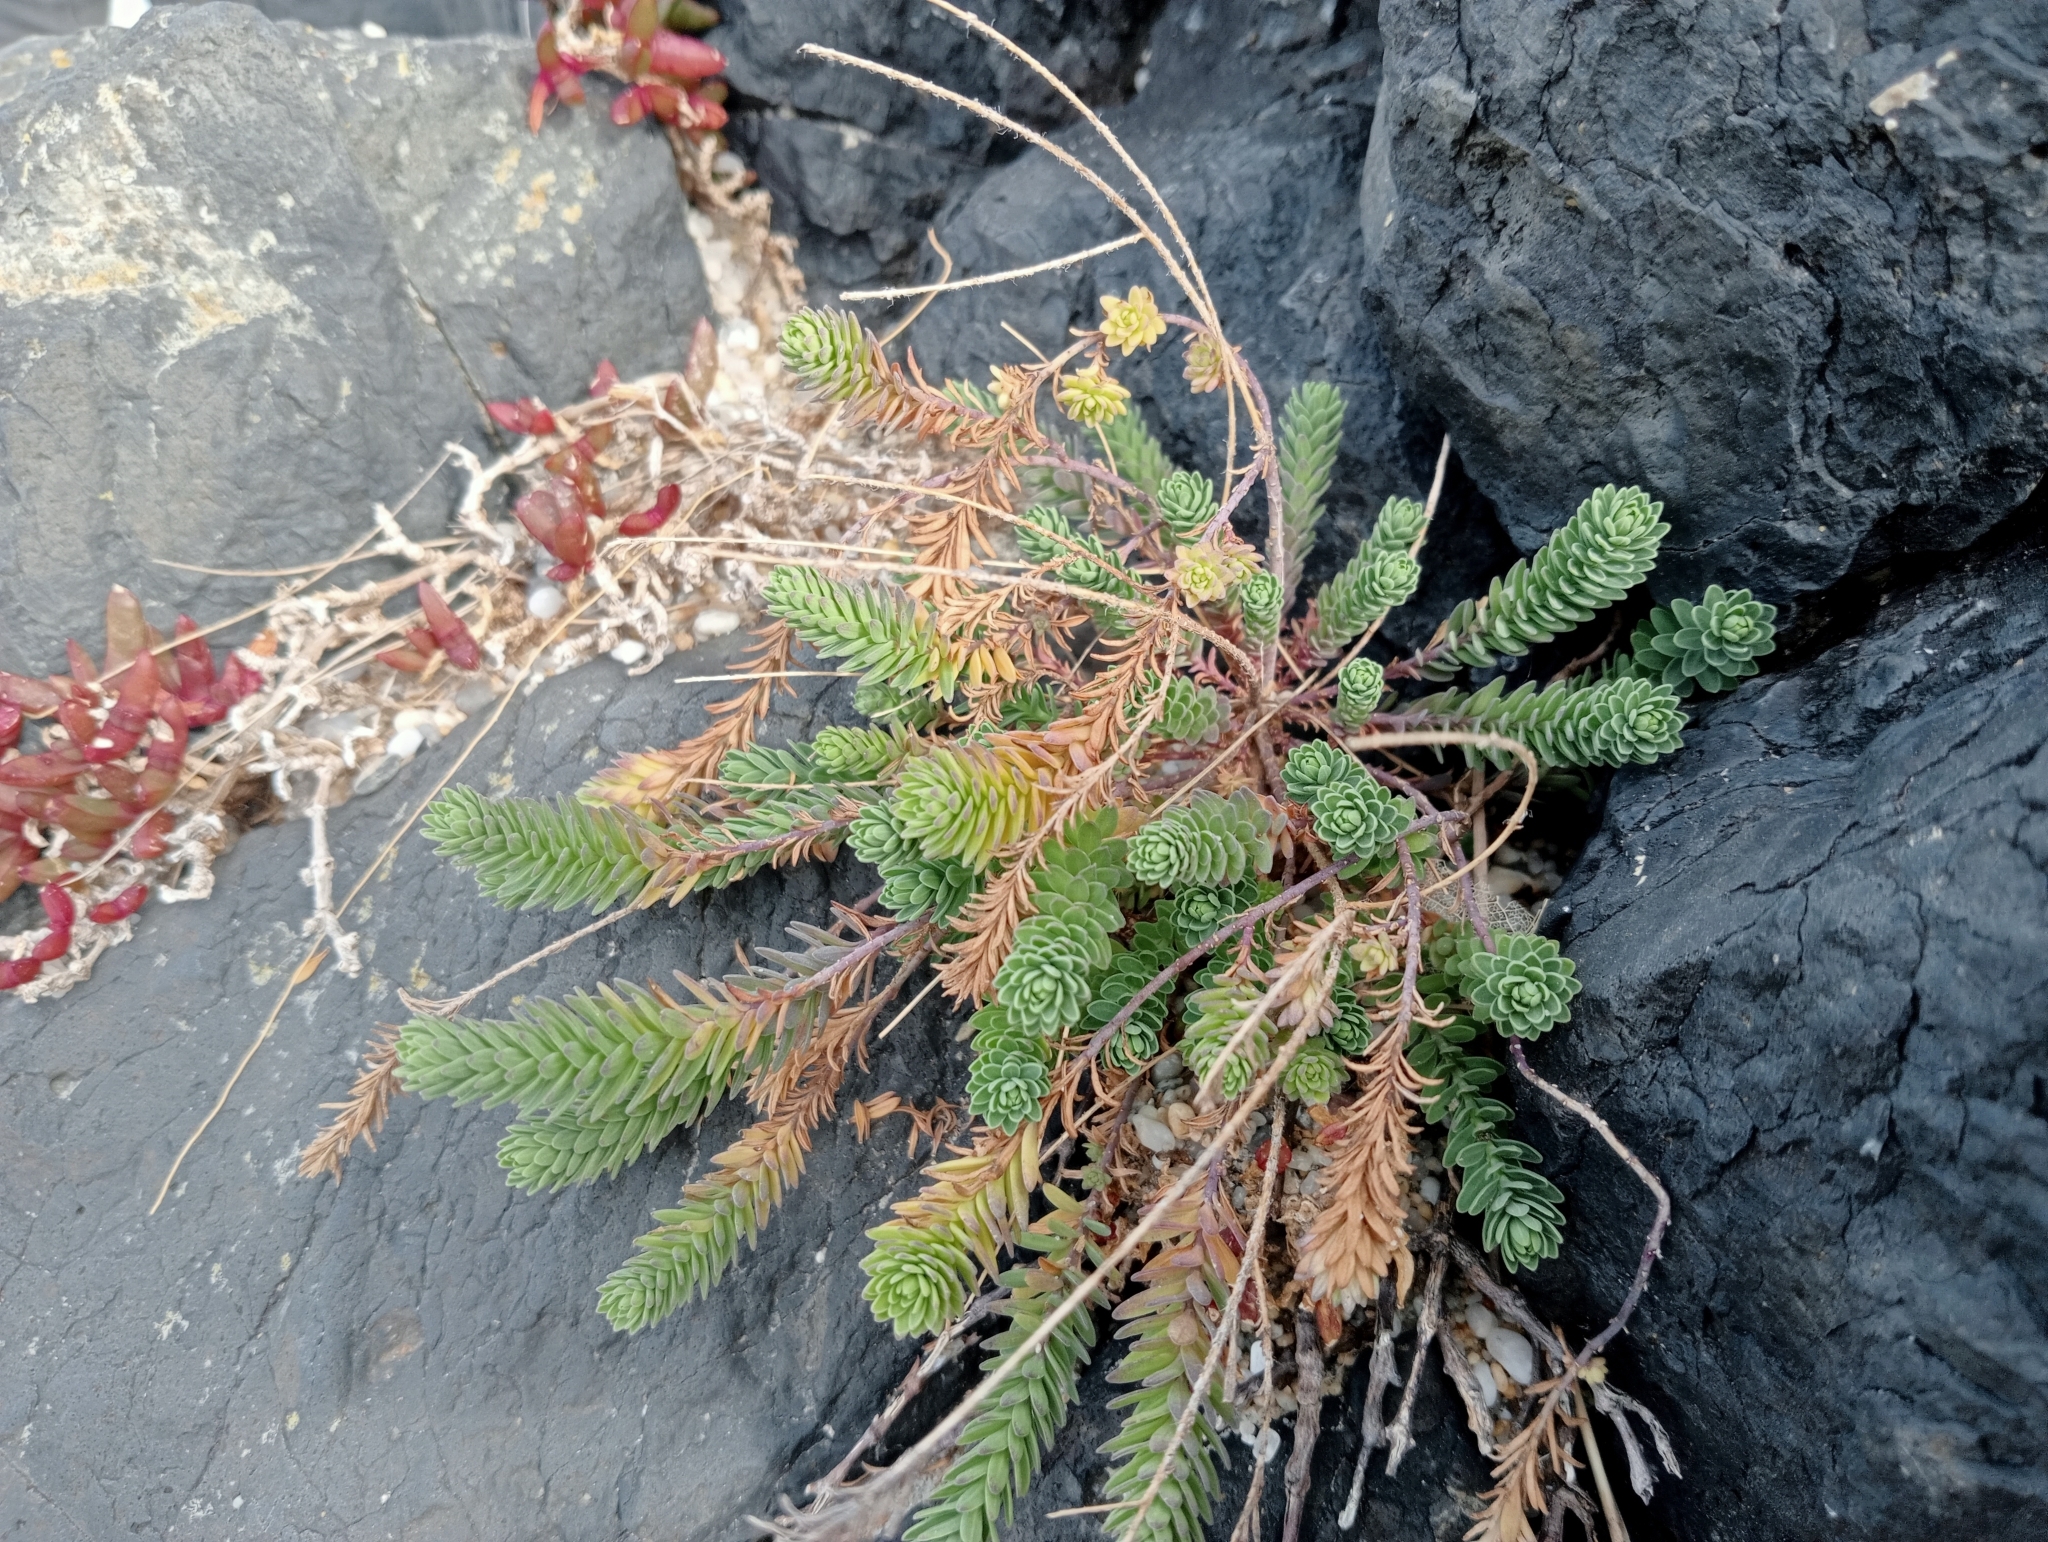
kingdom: Plantae
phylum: Tracheophyta
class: Magnoliopsida
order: Malpighiales
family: Linaceae
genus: Linum
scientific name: Linum monogynum
